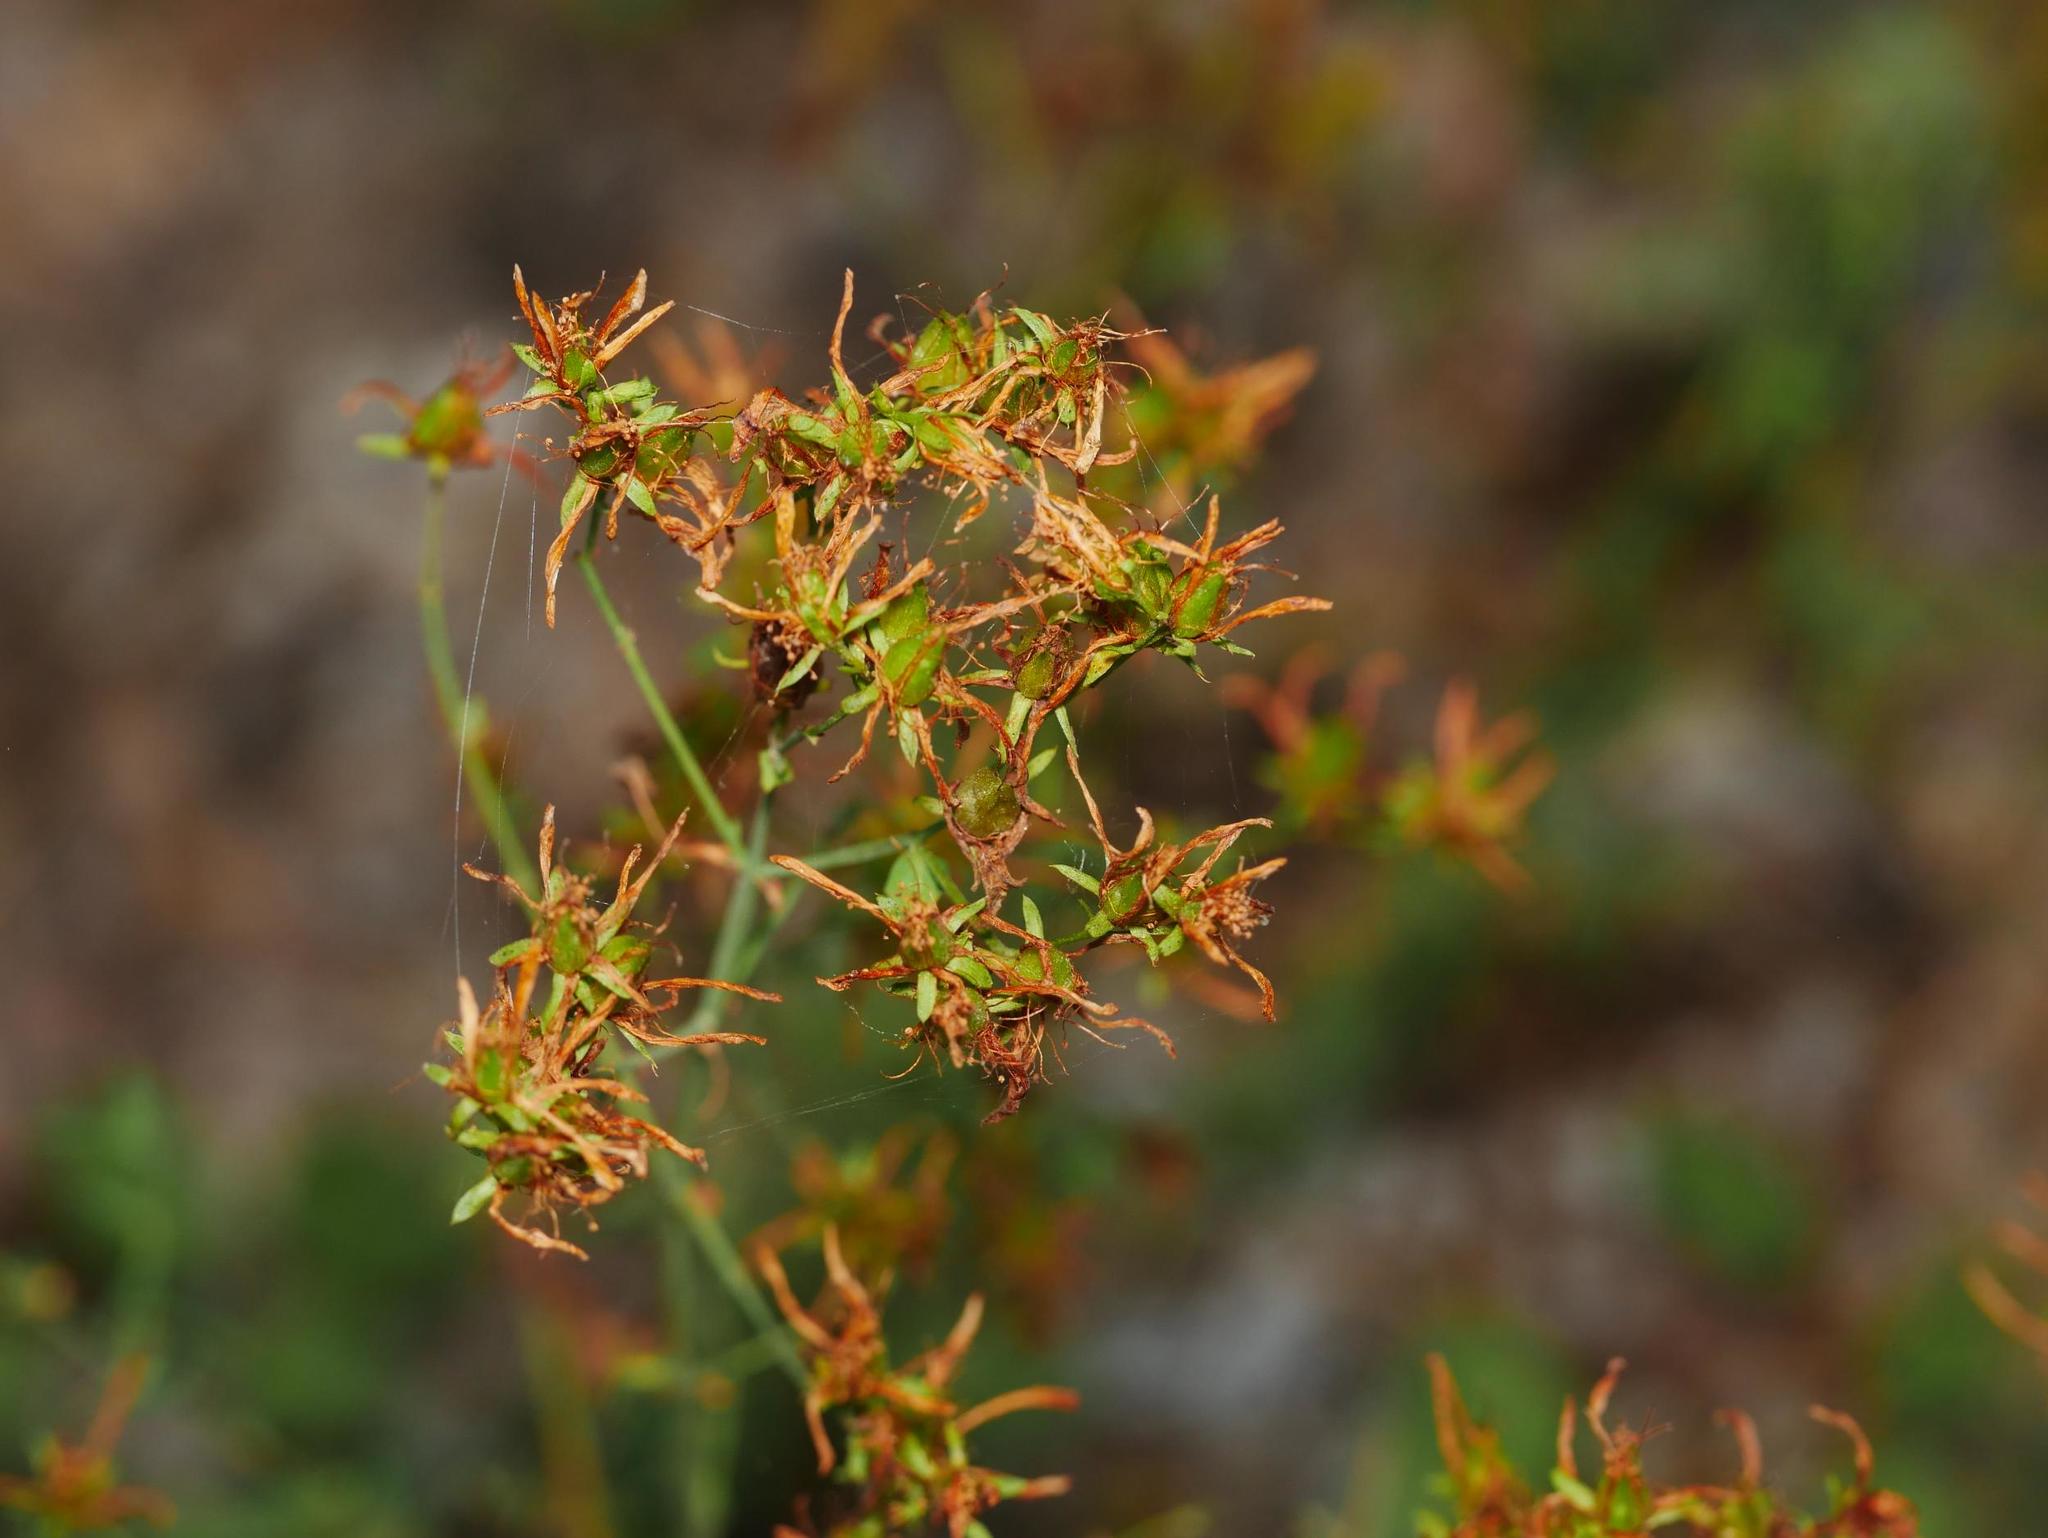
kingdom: Plantae
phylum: Tracheophyta
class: Magnoliopsida
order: Malpighiales
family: Hypericaceae
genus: Hypericum
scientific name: Hypericum perforatum
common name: Common st. johnswort
